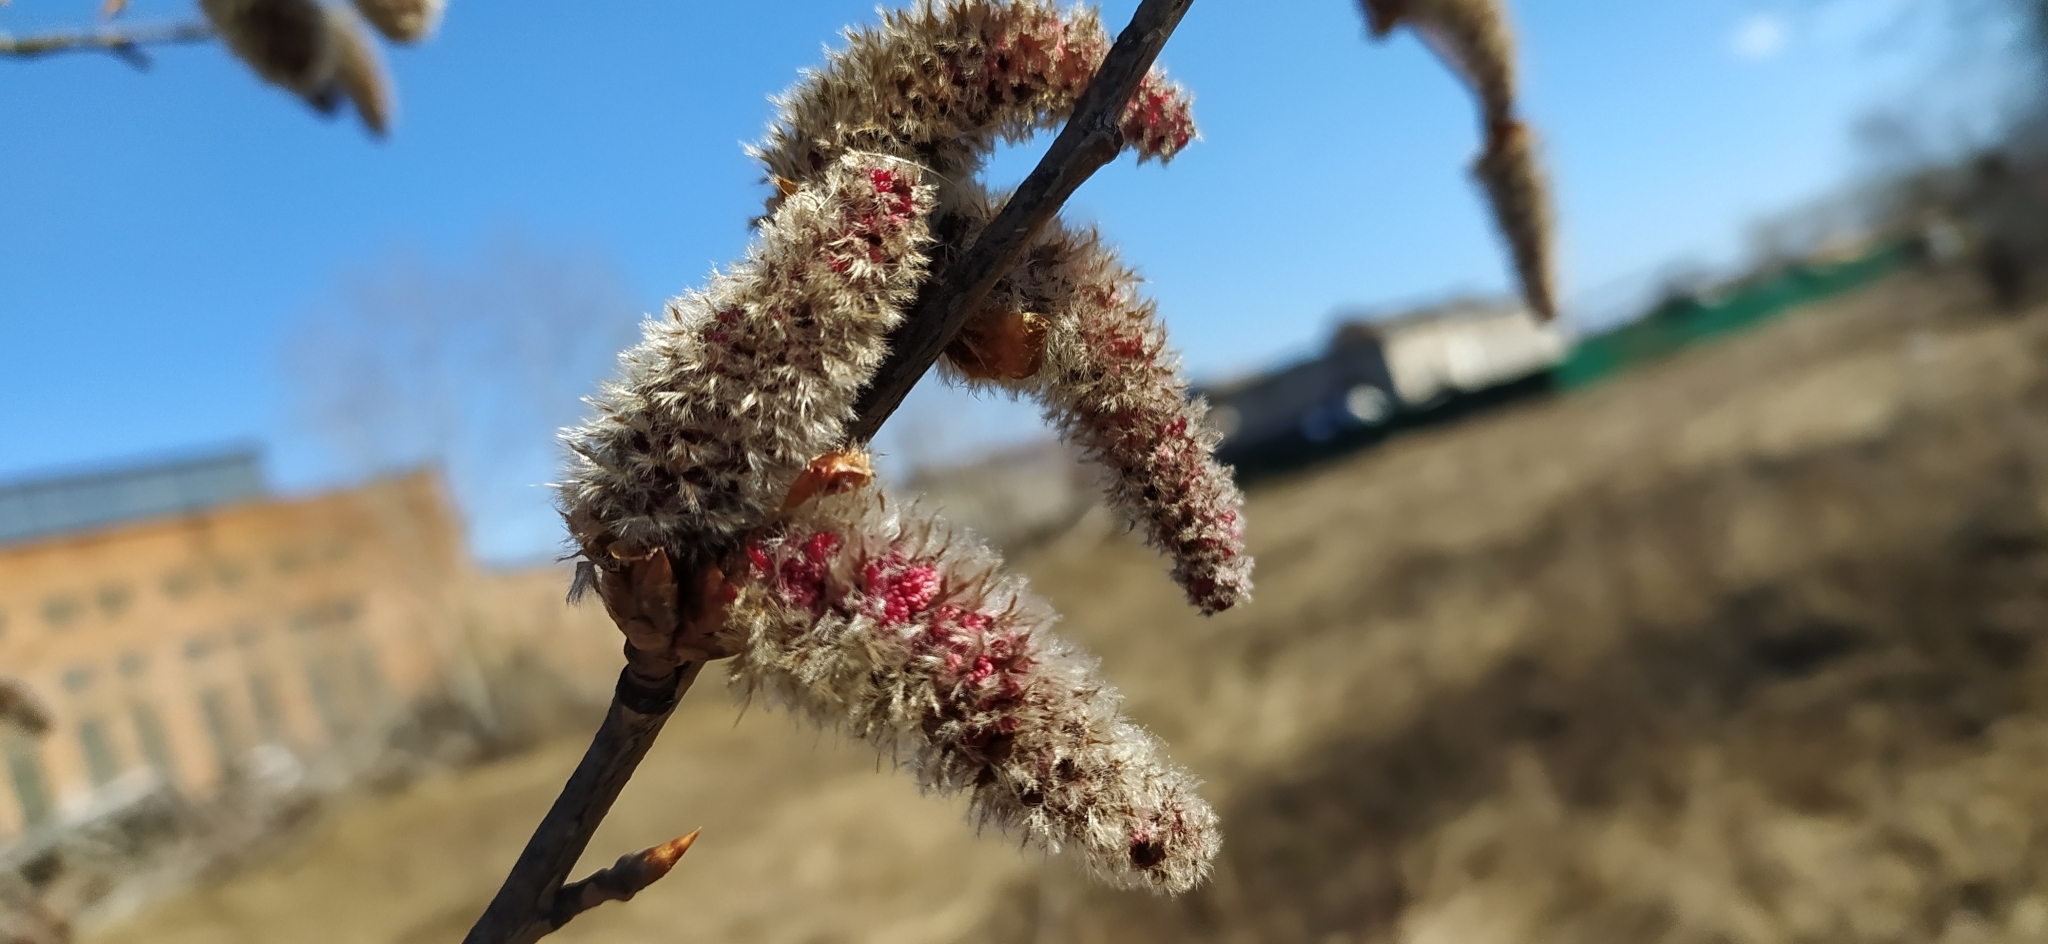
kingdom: Plantae
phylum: Tracheophyta
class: Magnoliopsida
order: Malpighiales
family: Salicaceae
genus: Populus
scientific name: Populus tremula
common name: European aspen
